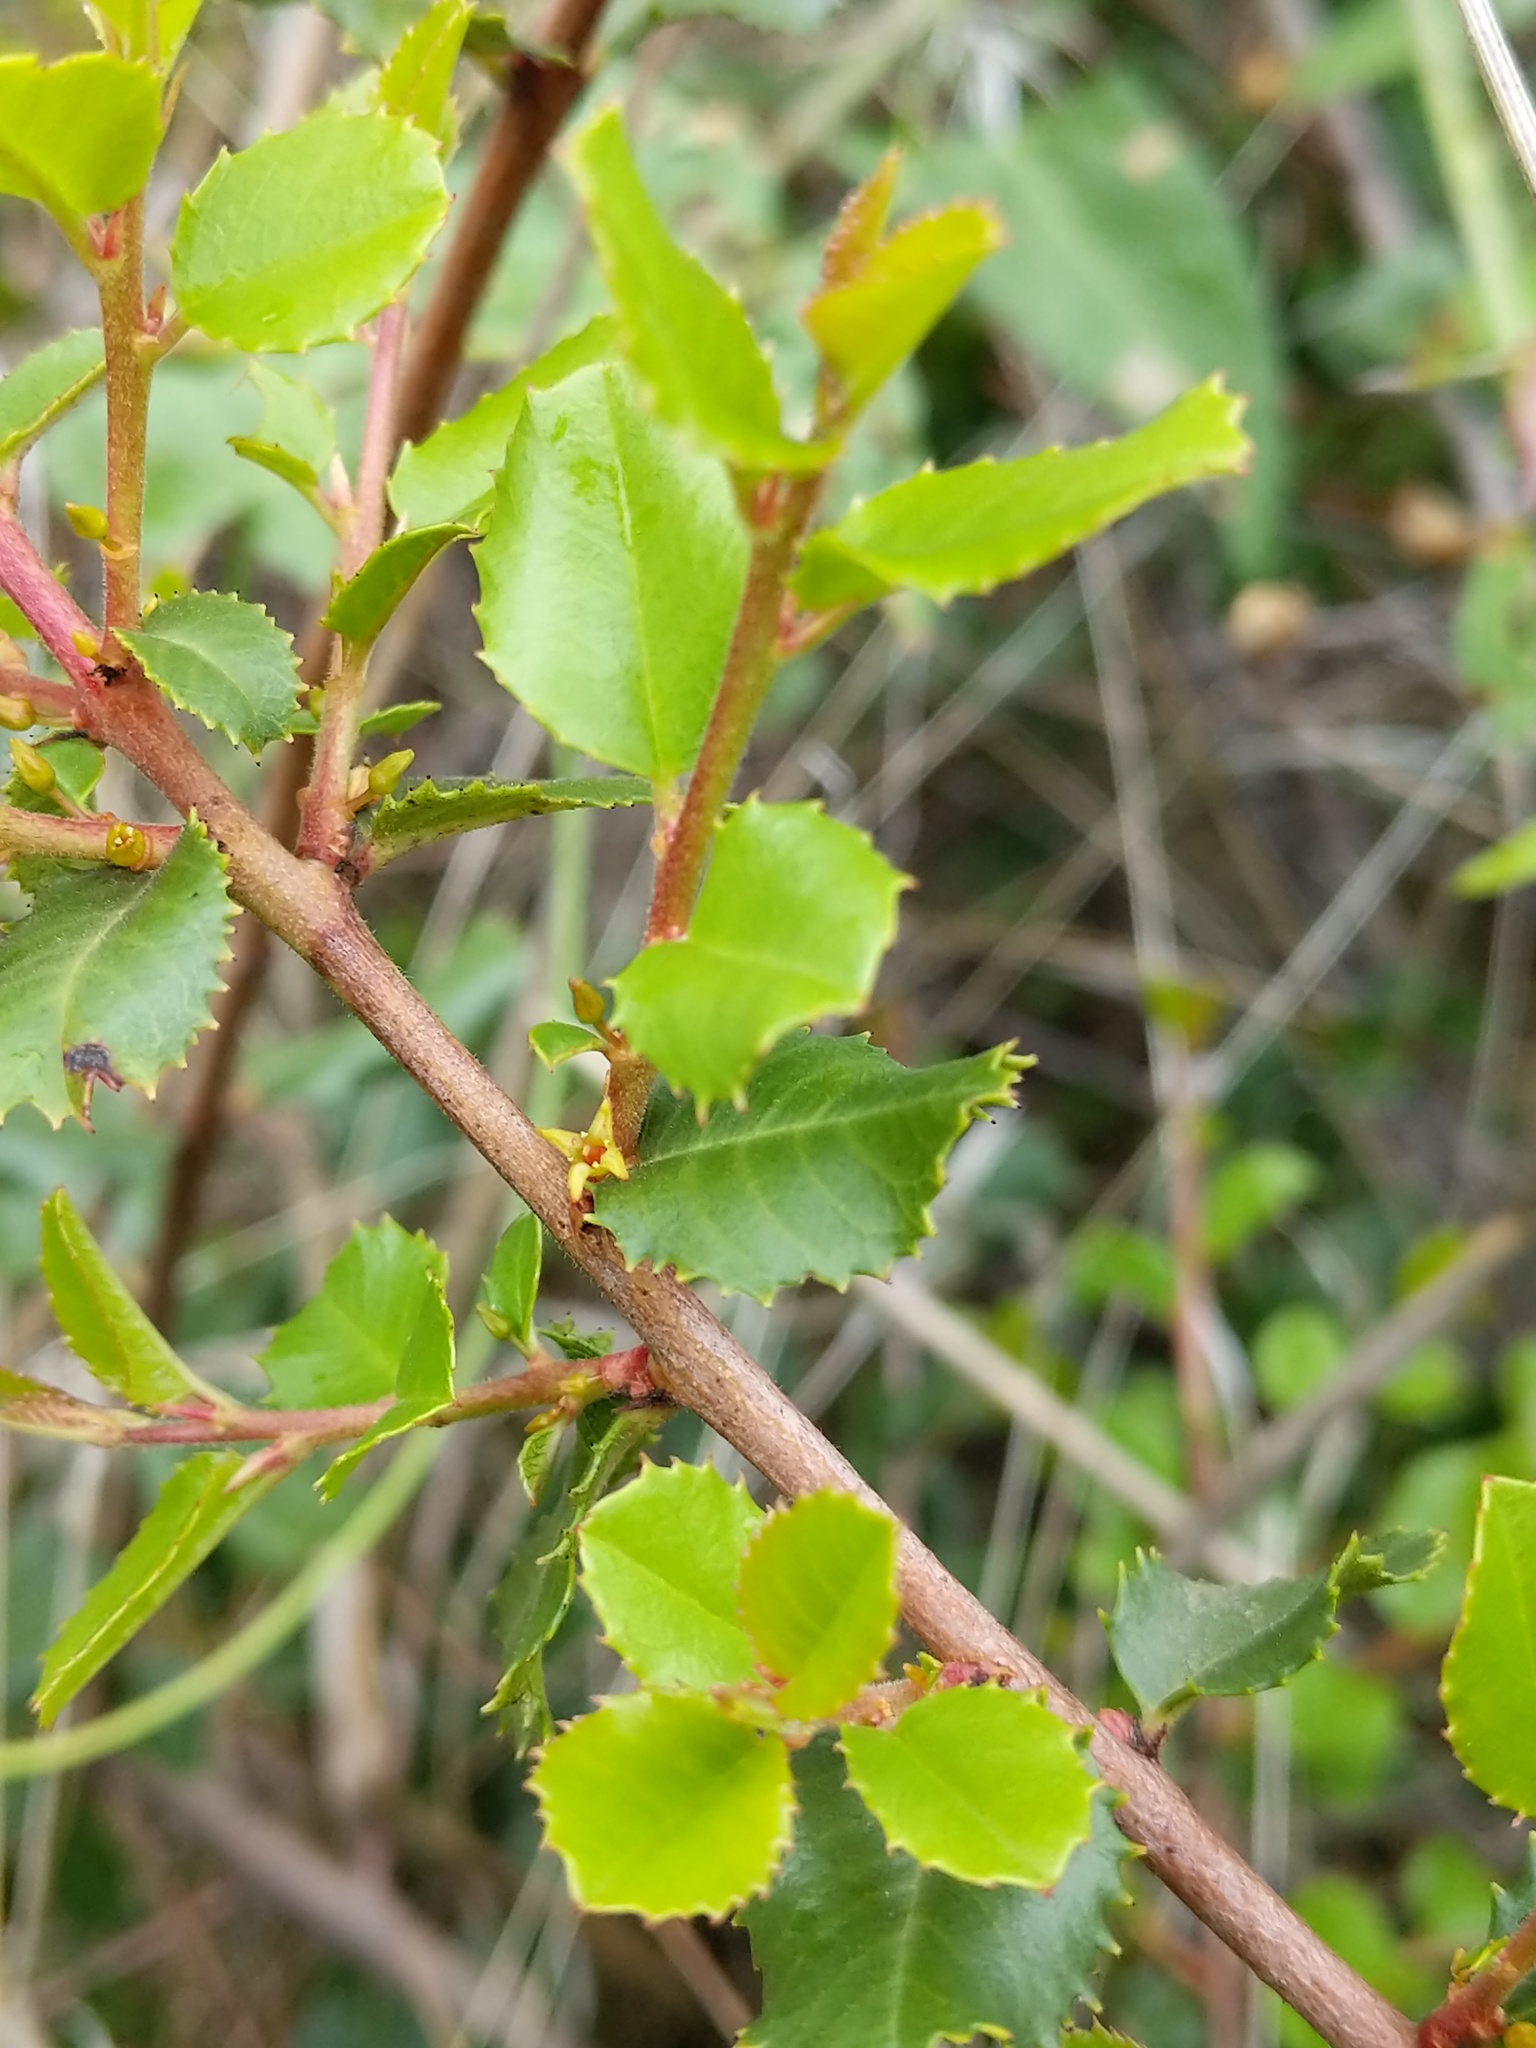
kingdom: Plantae
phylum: Tracheophyta
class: Magnoliopsida
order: Rosales
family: Rhamnaceae
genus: Endotropis
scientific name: Endotropis crocea
